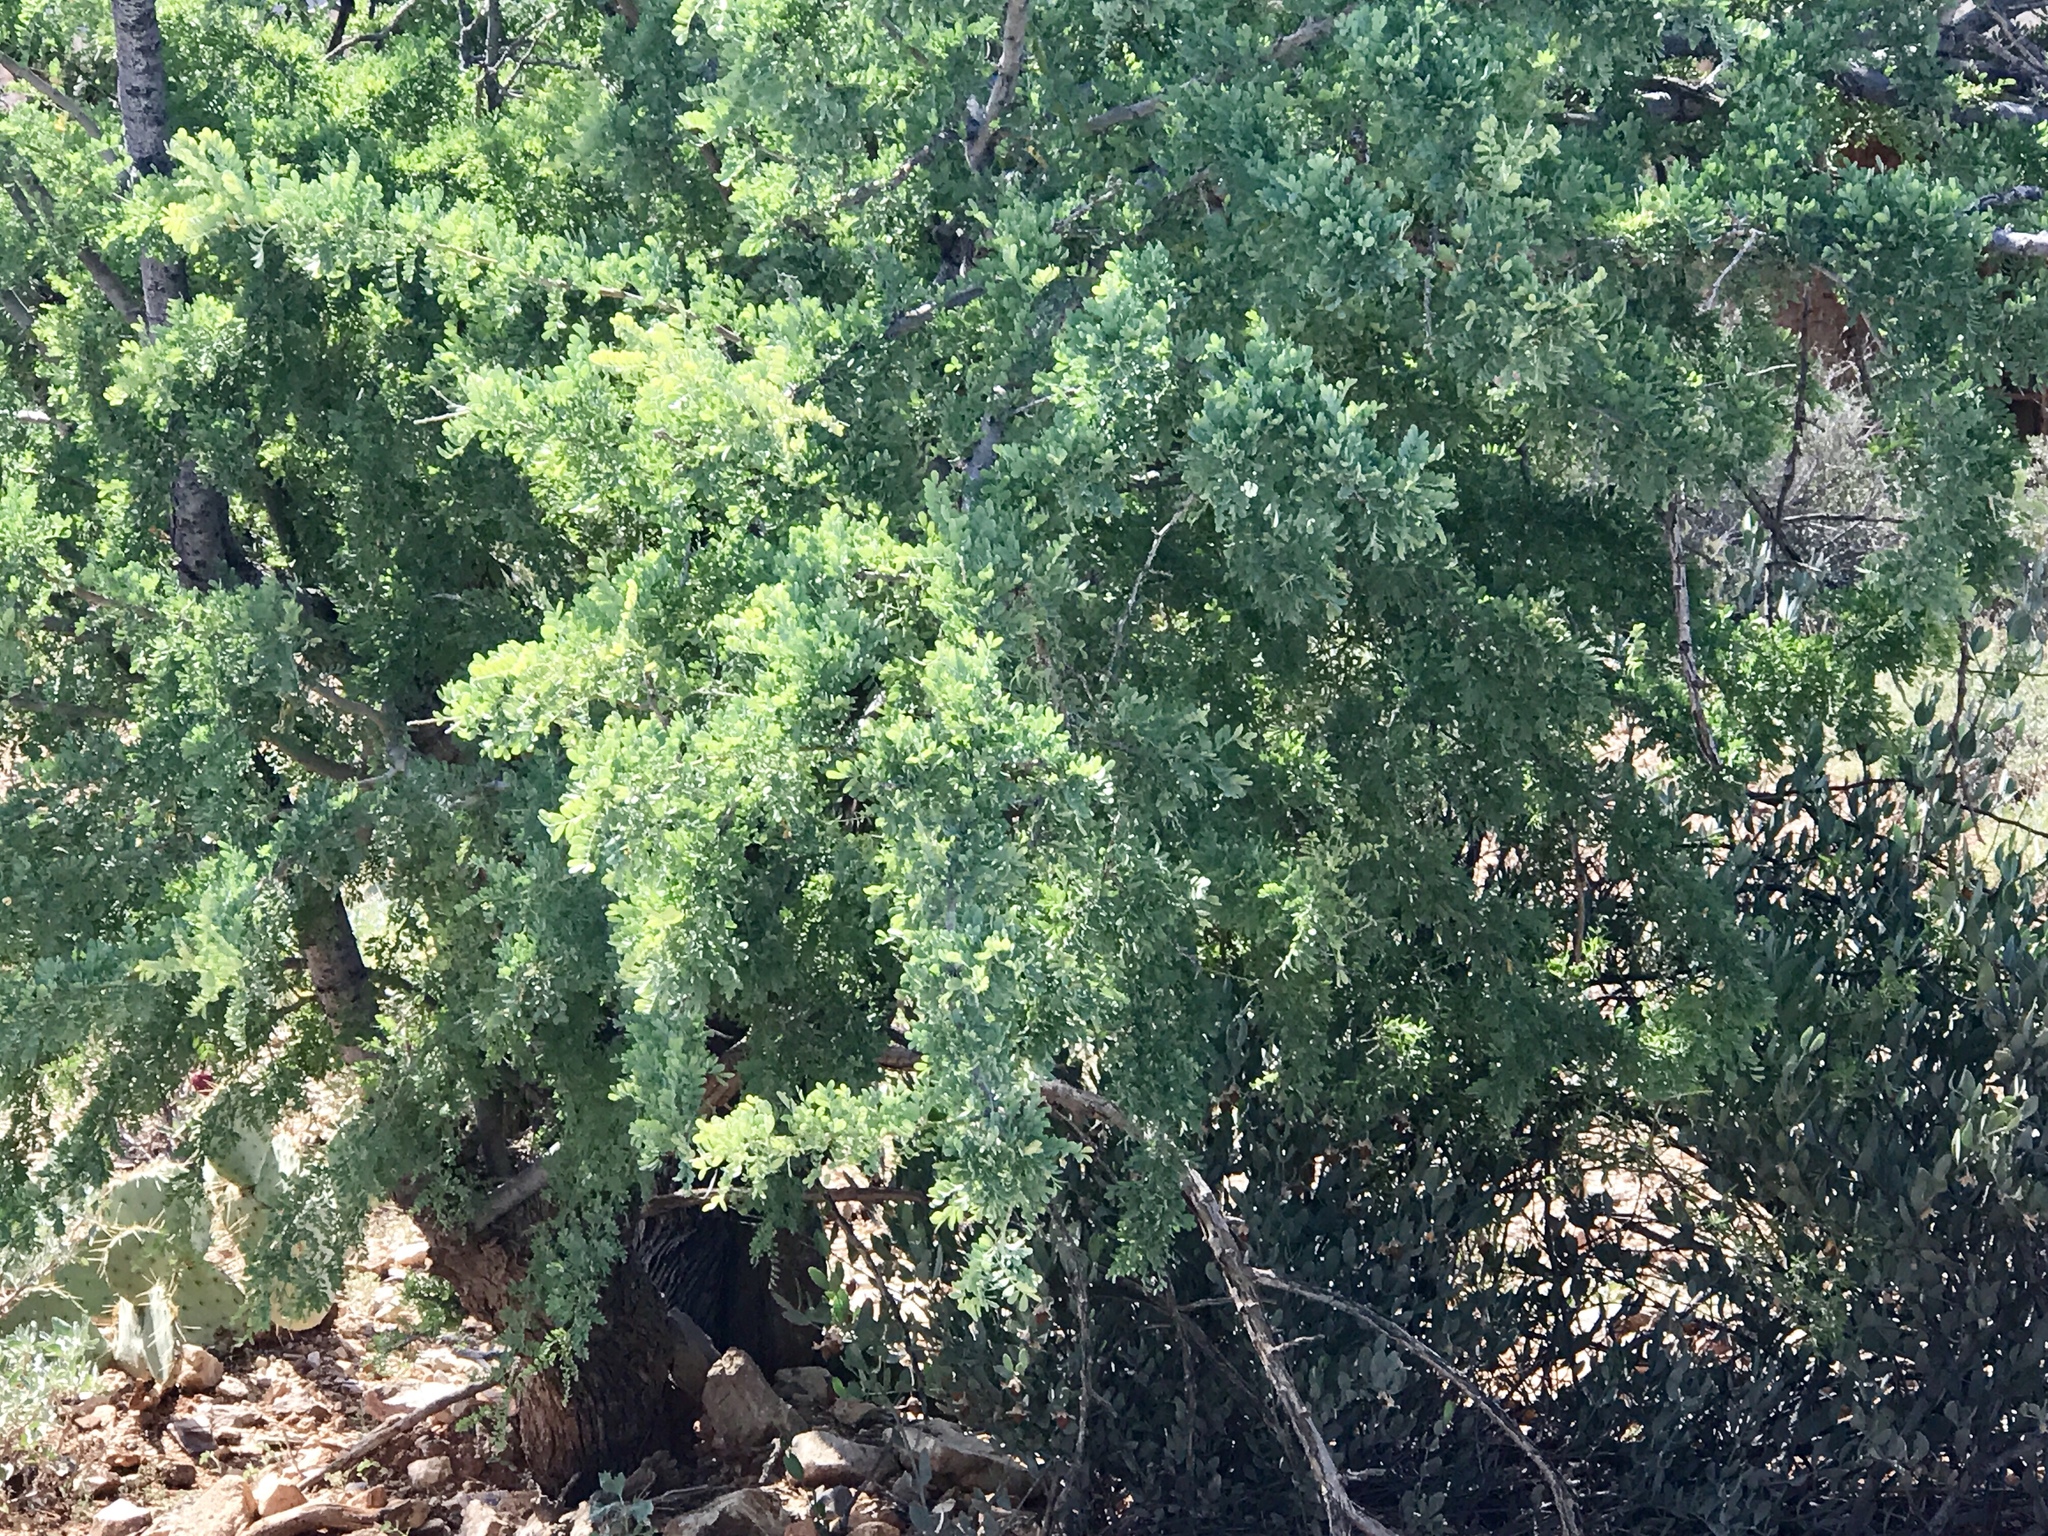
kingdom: Plantae
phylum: Tracheophyta
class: Magnoliopsida
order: Fabales
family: Fabaceae
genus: Olneya
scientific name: Olneya tesota
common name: Desert ironwood
